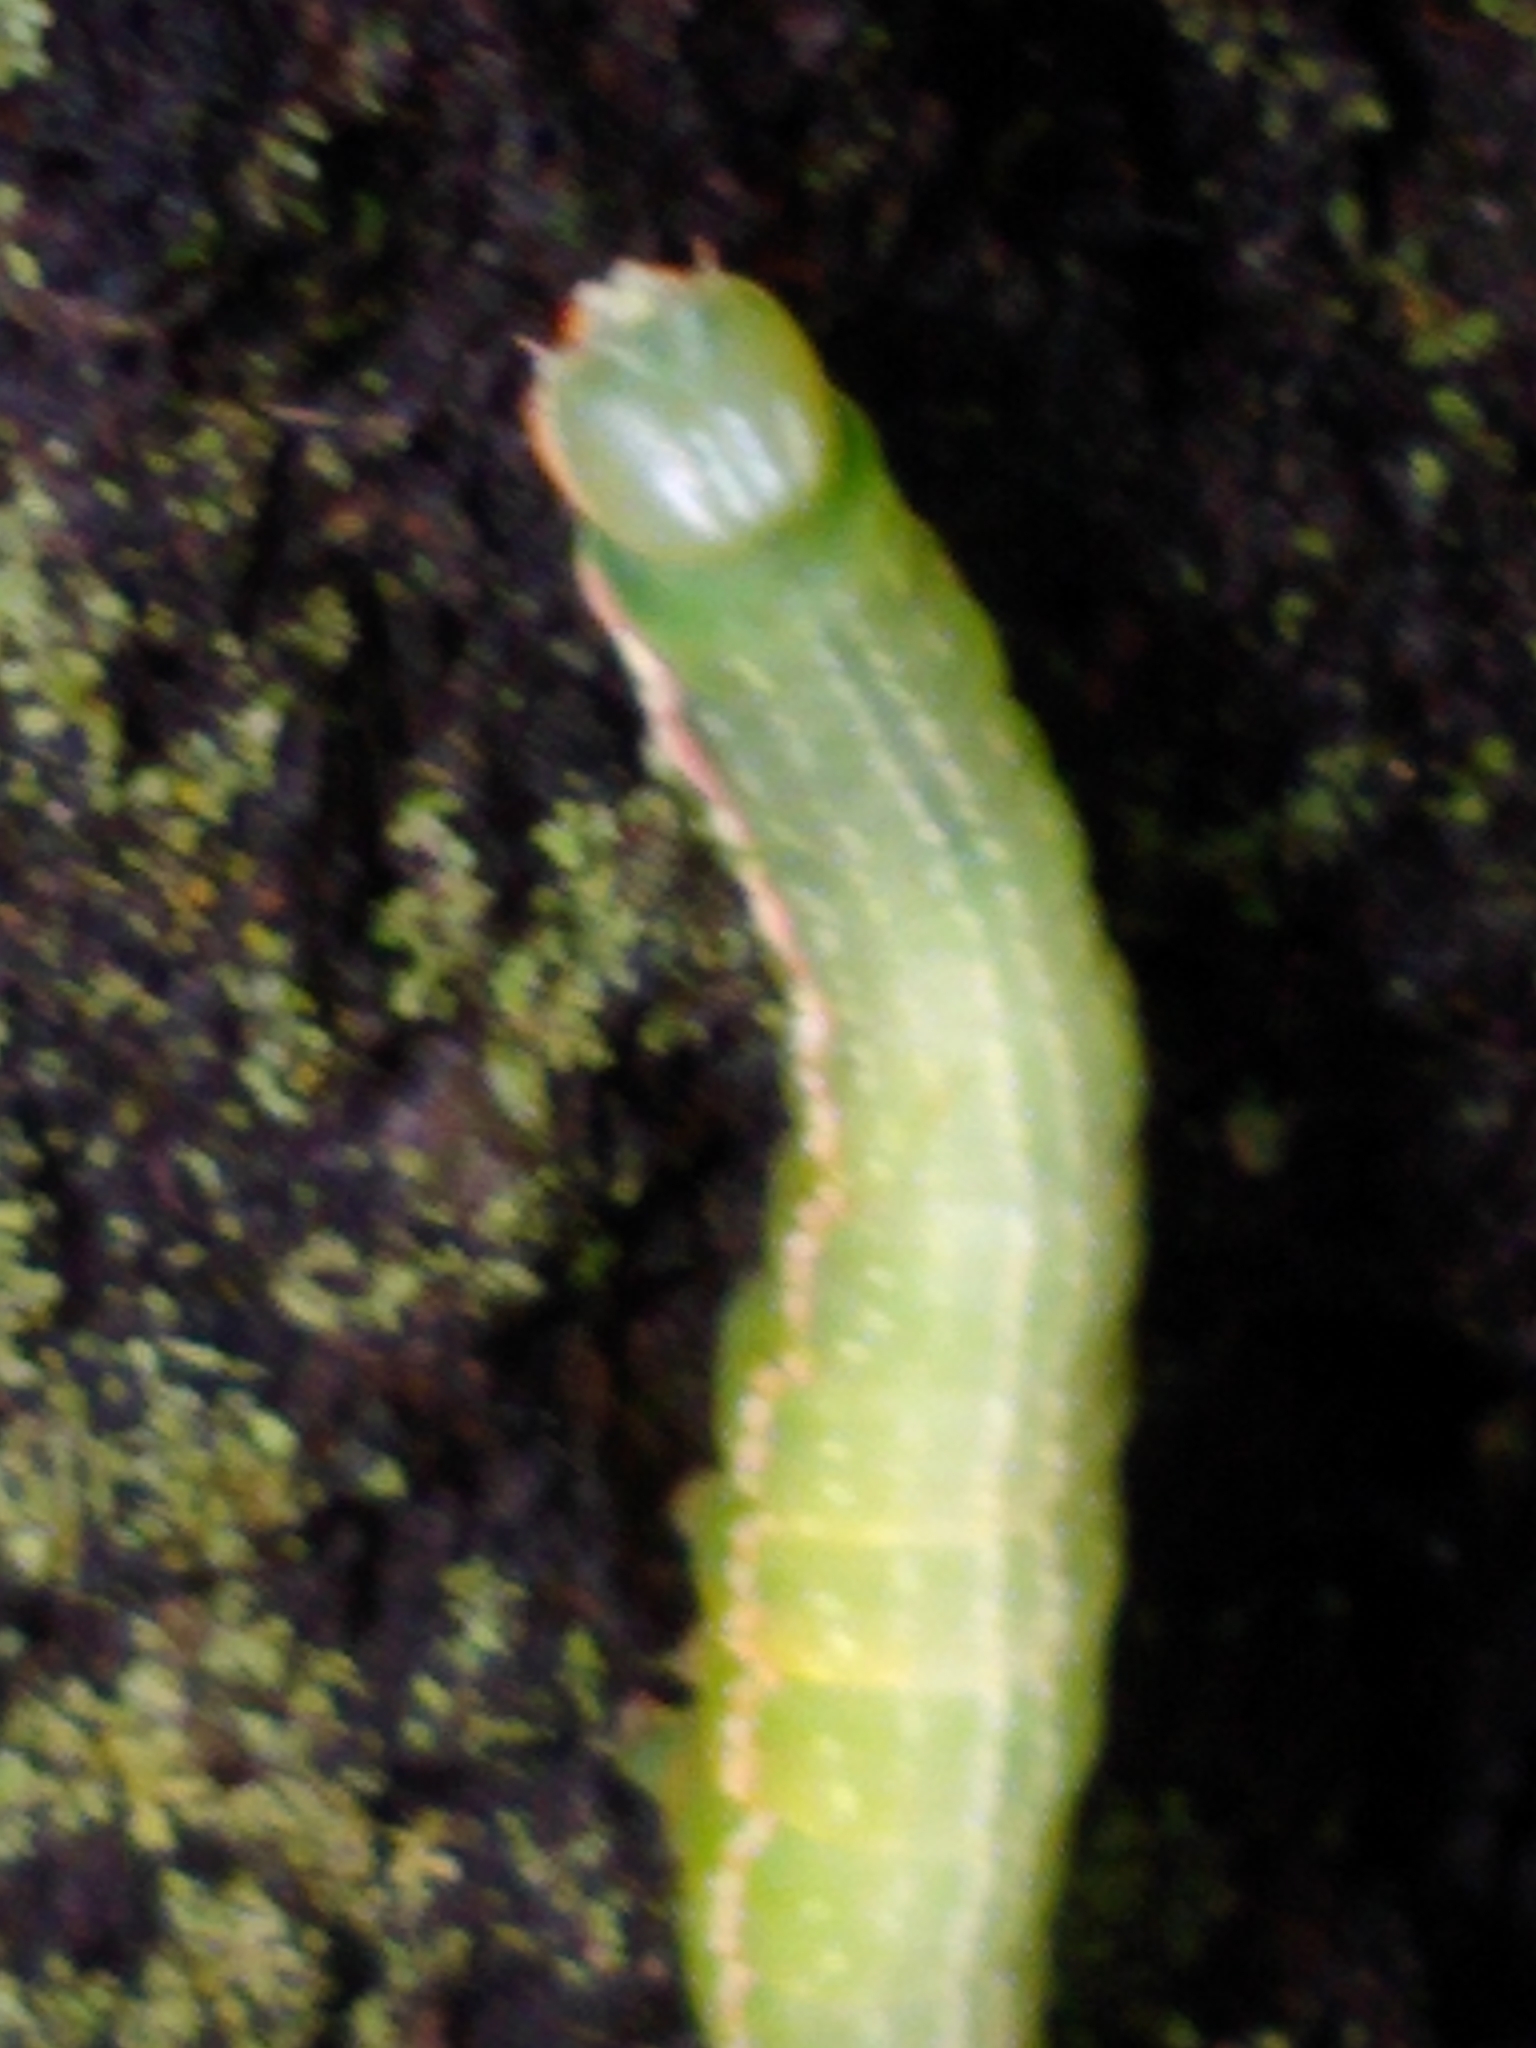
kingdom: Animalia
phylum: Arthropoda
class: Insecta
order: Lepidoptera
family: Notodontidae
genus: Peridea
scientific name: Peridea angulosa
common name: Angulose prominent
